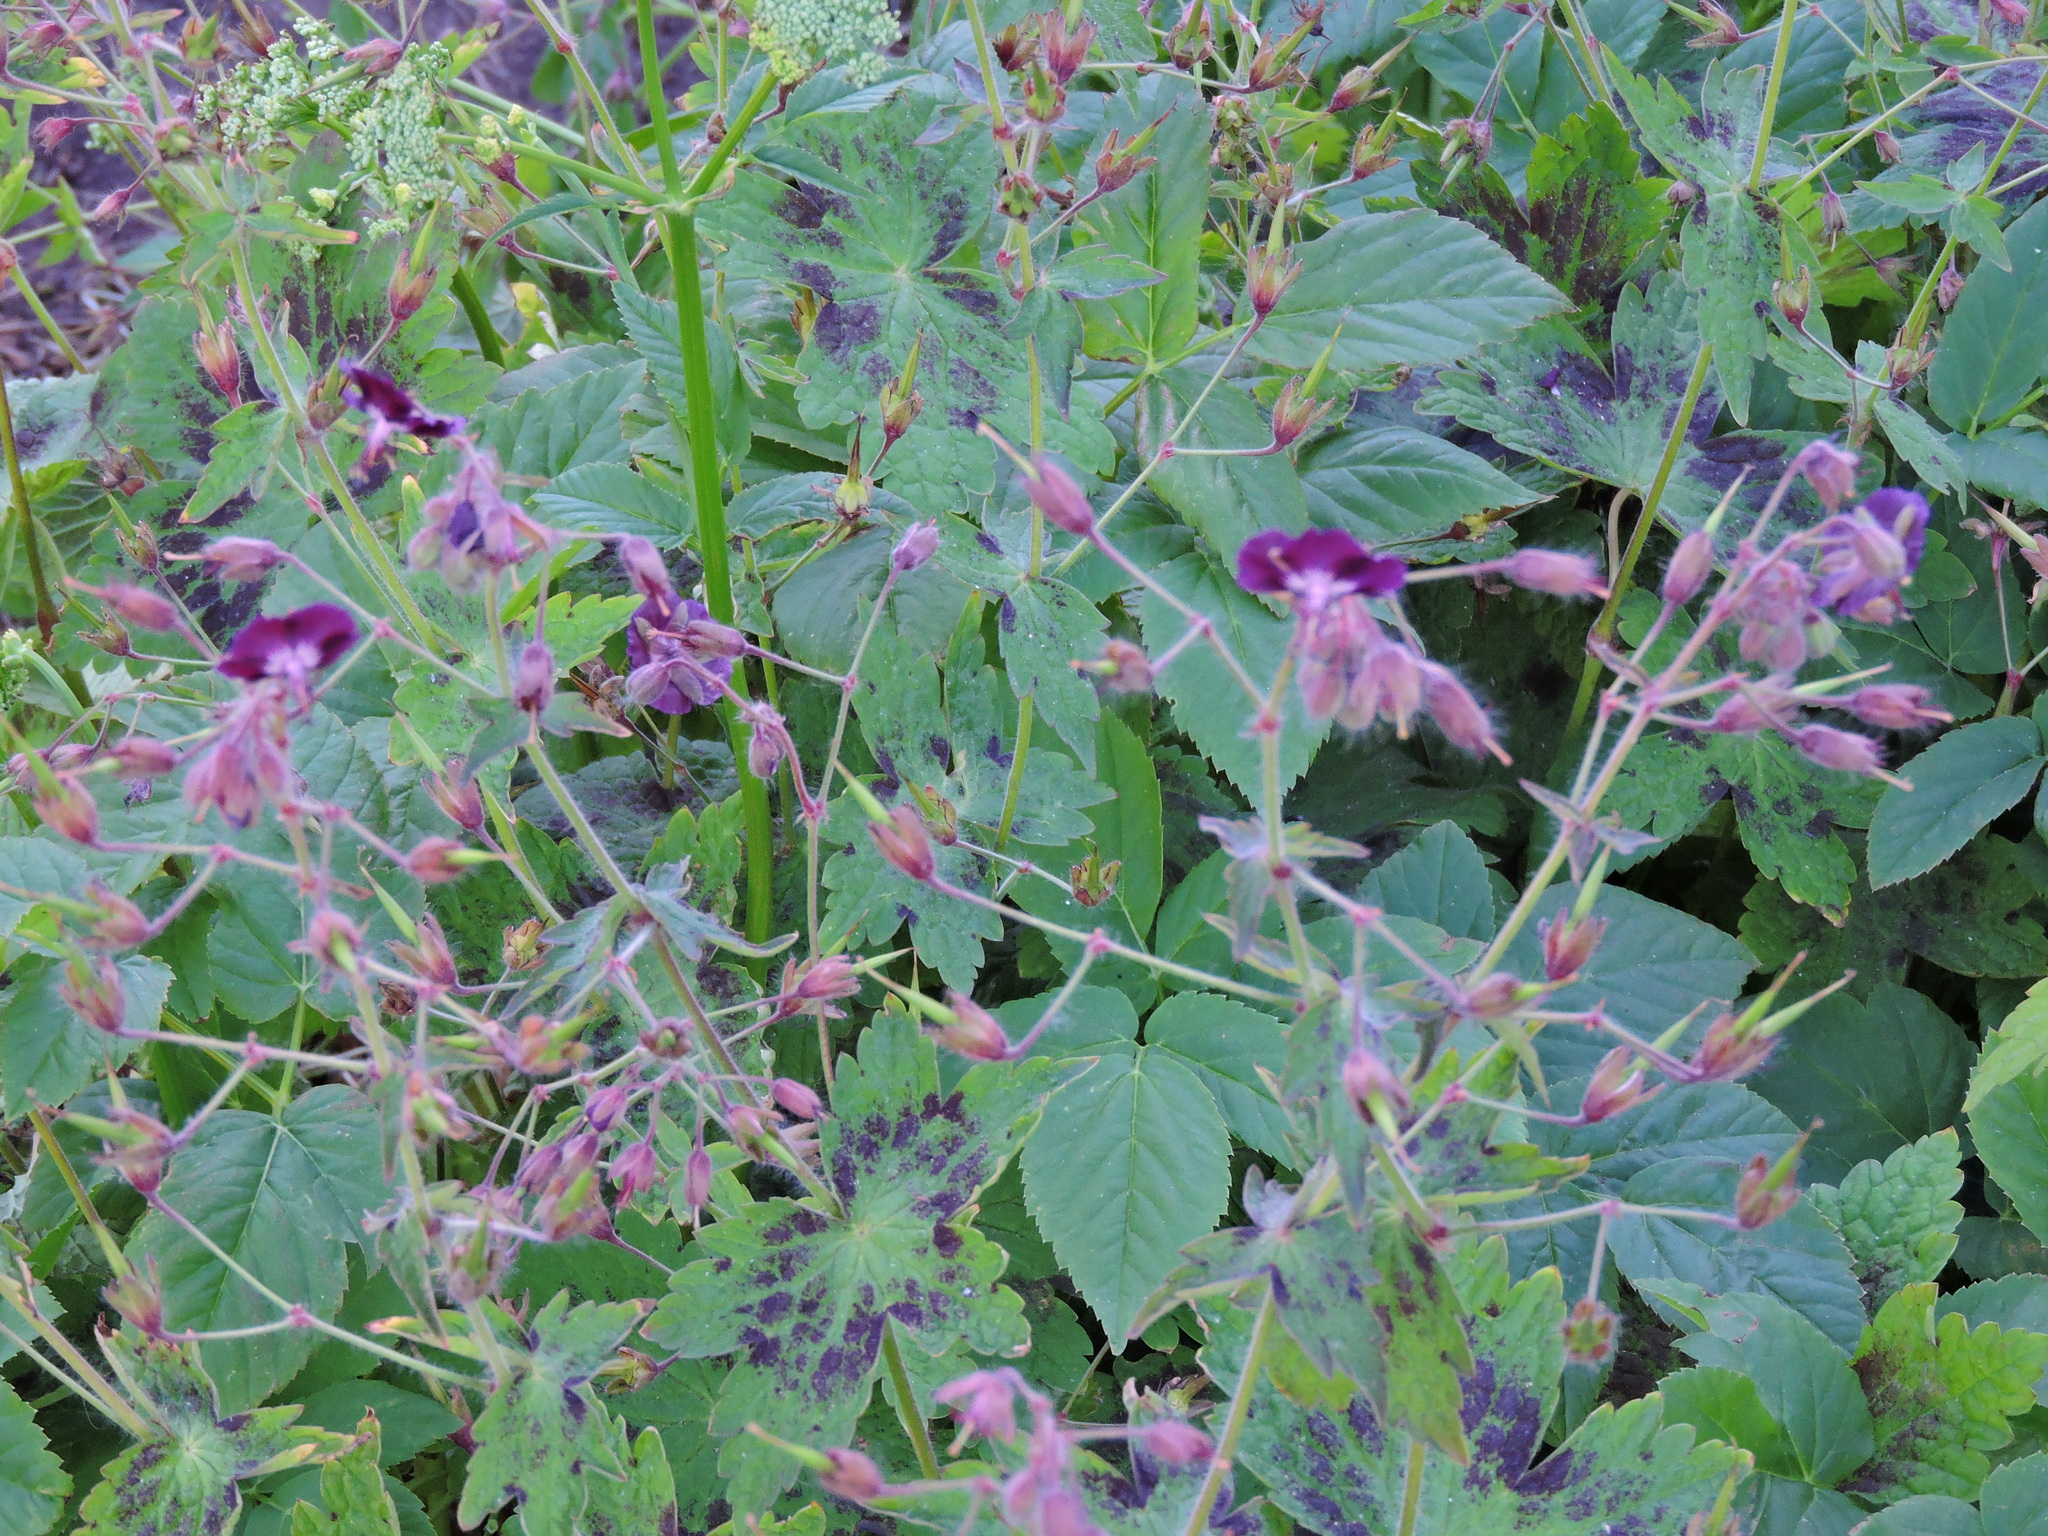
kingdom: Plantae
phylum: Tracheophyta
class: Magnoliopsida
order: Geraniales
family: Geraniaceae
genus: Geranium
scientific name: Geranium phaeum
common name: Dusky crane's-bill
